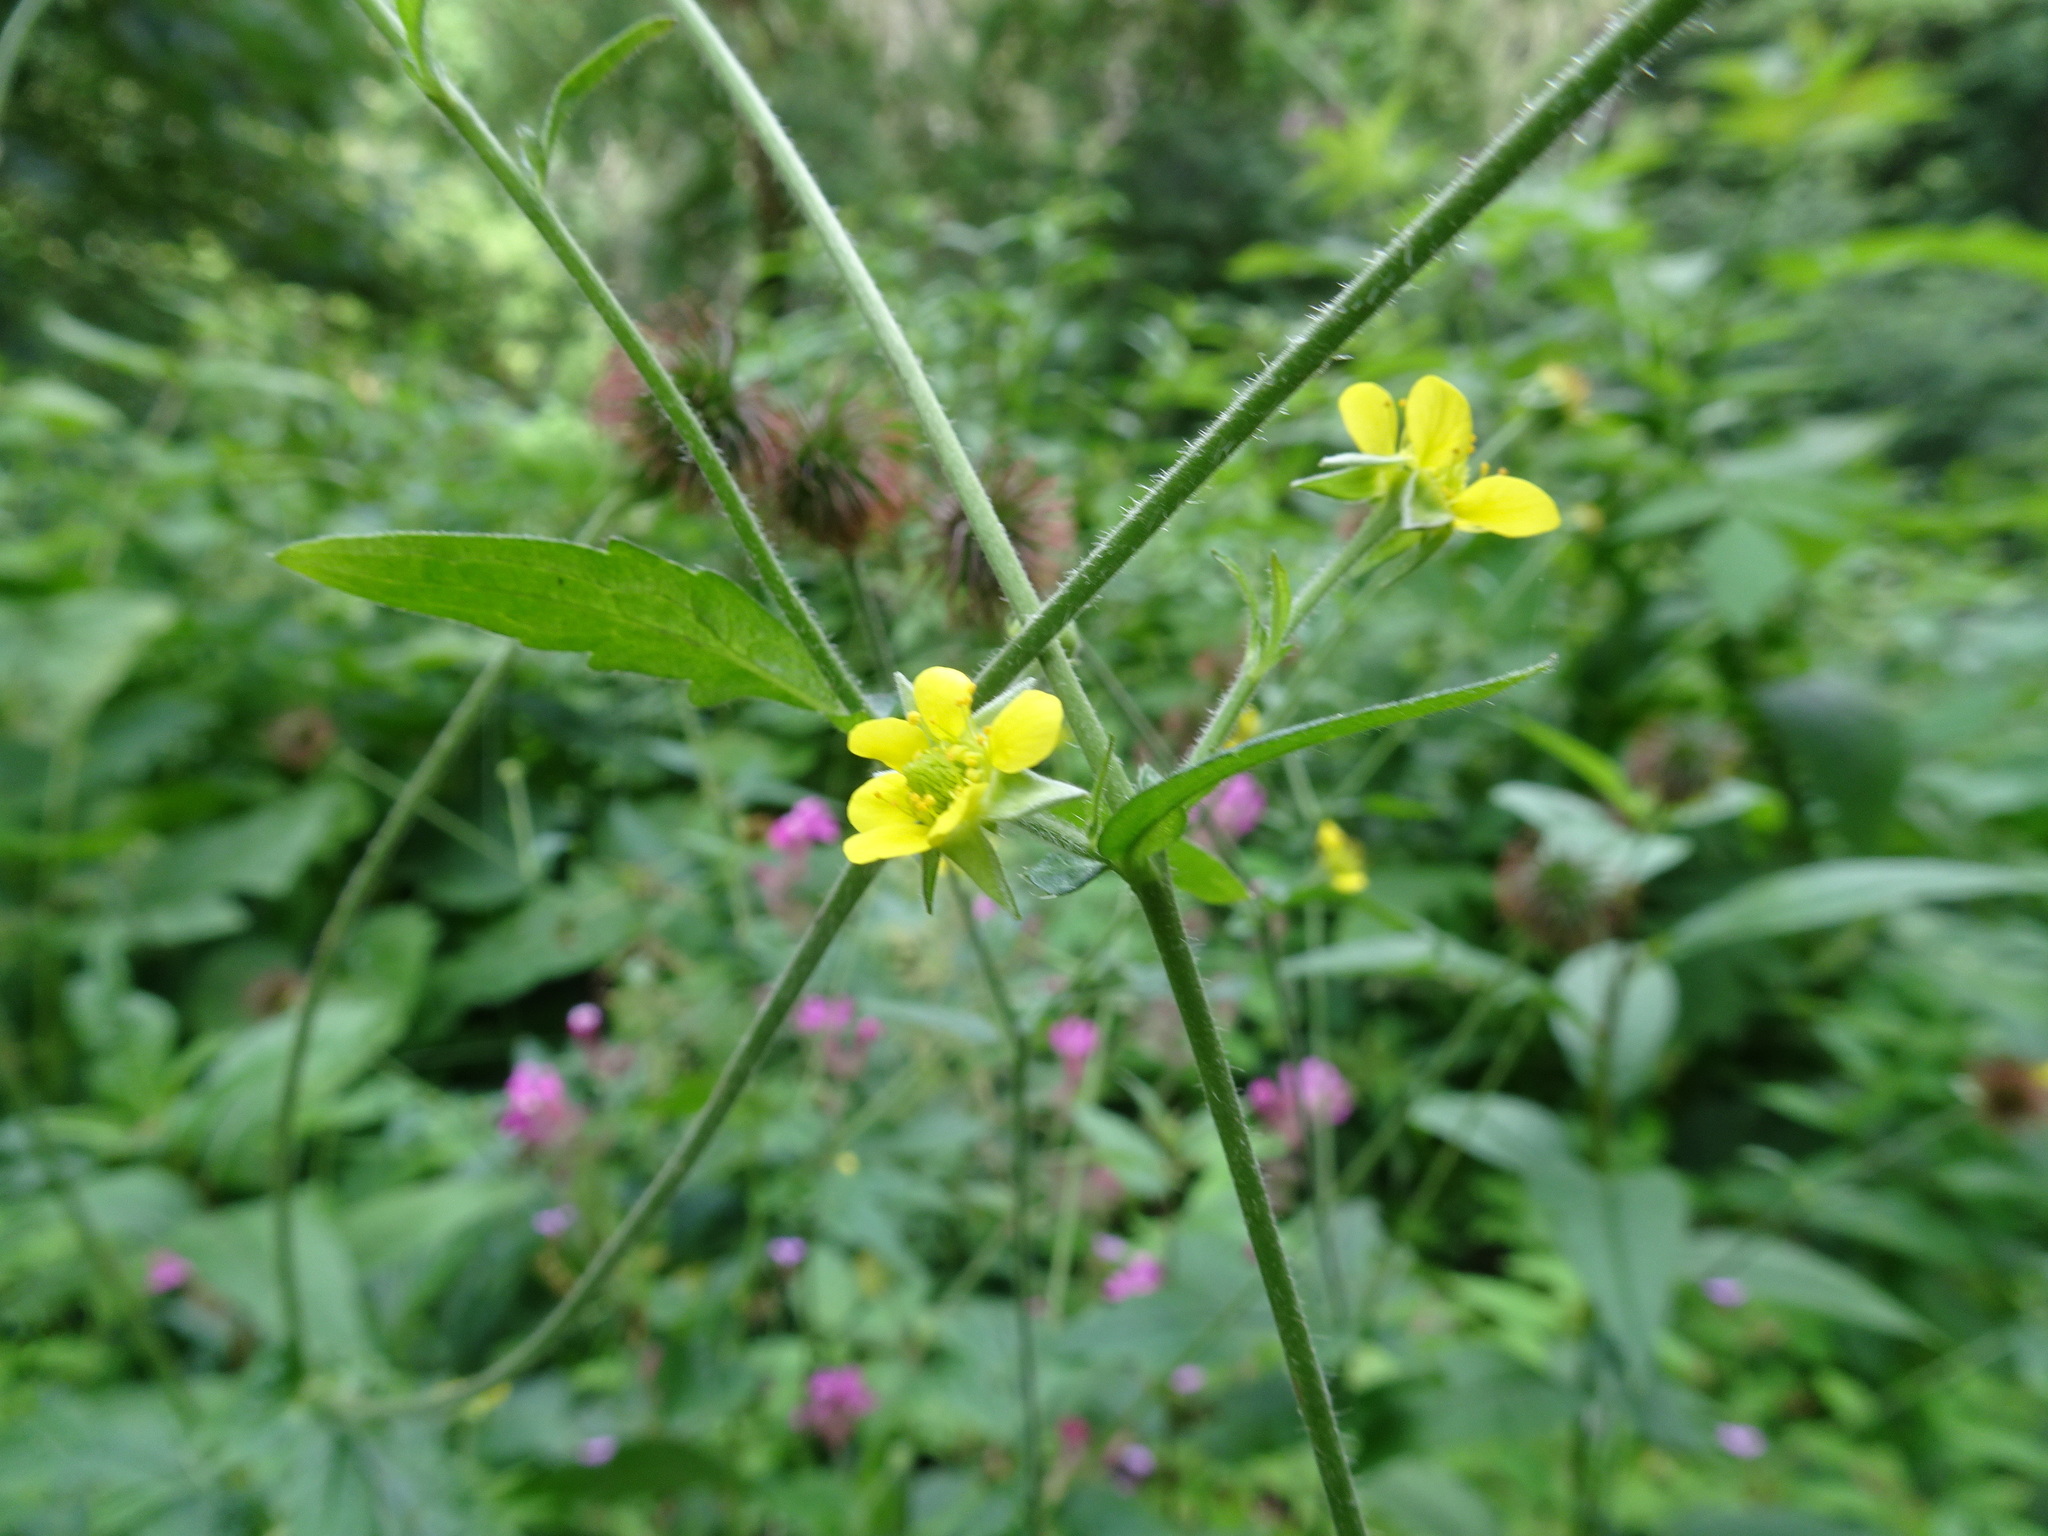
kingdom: Plantae
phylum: Tracheophyta
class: Magnoliopsida
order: Rosales
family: Rosaceae
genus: Geum
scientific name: Geum urbanum
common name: Wood avens
